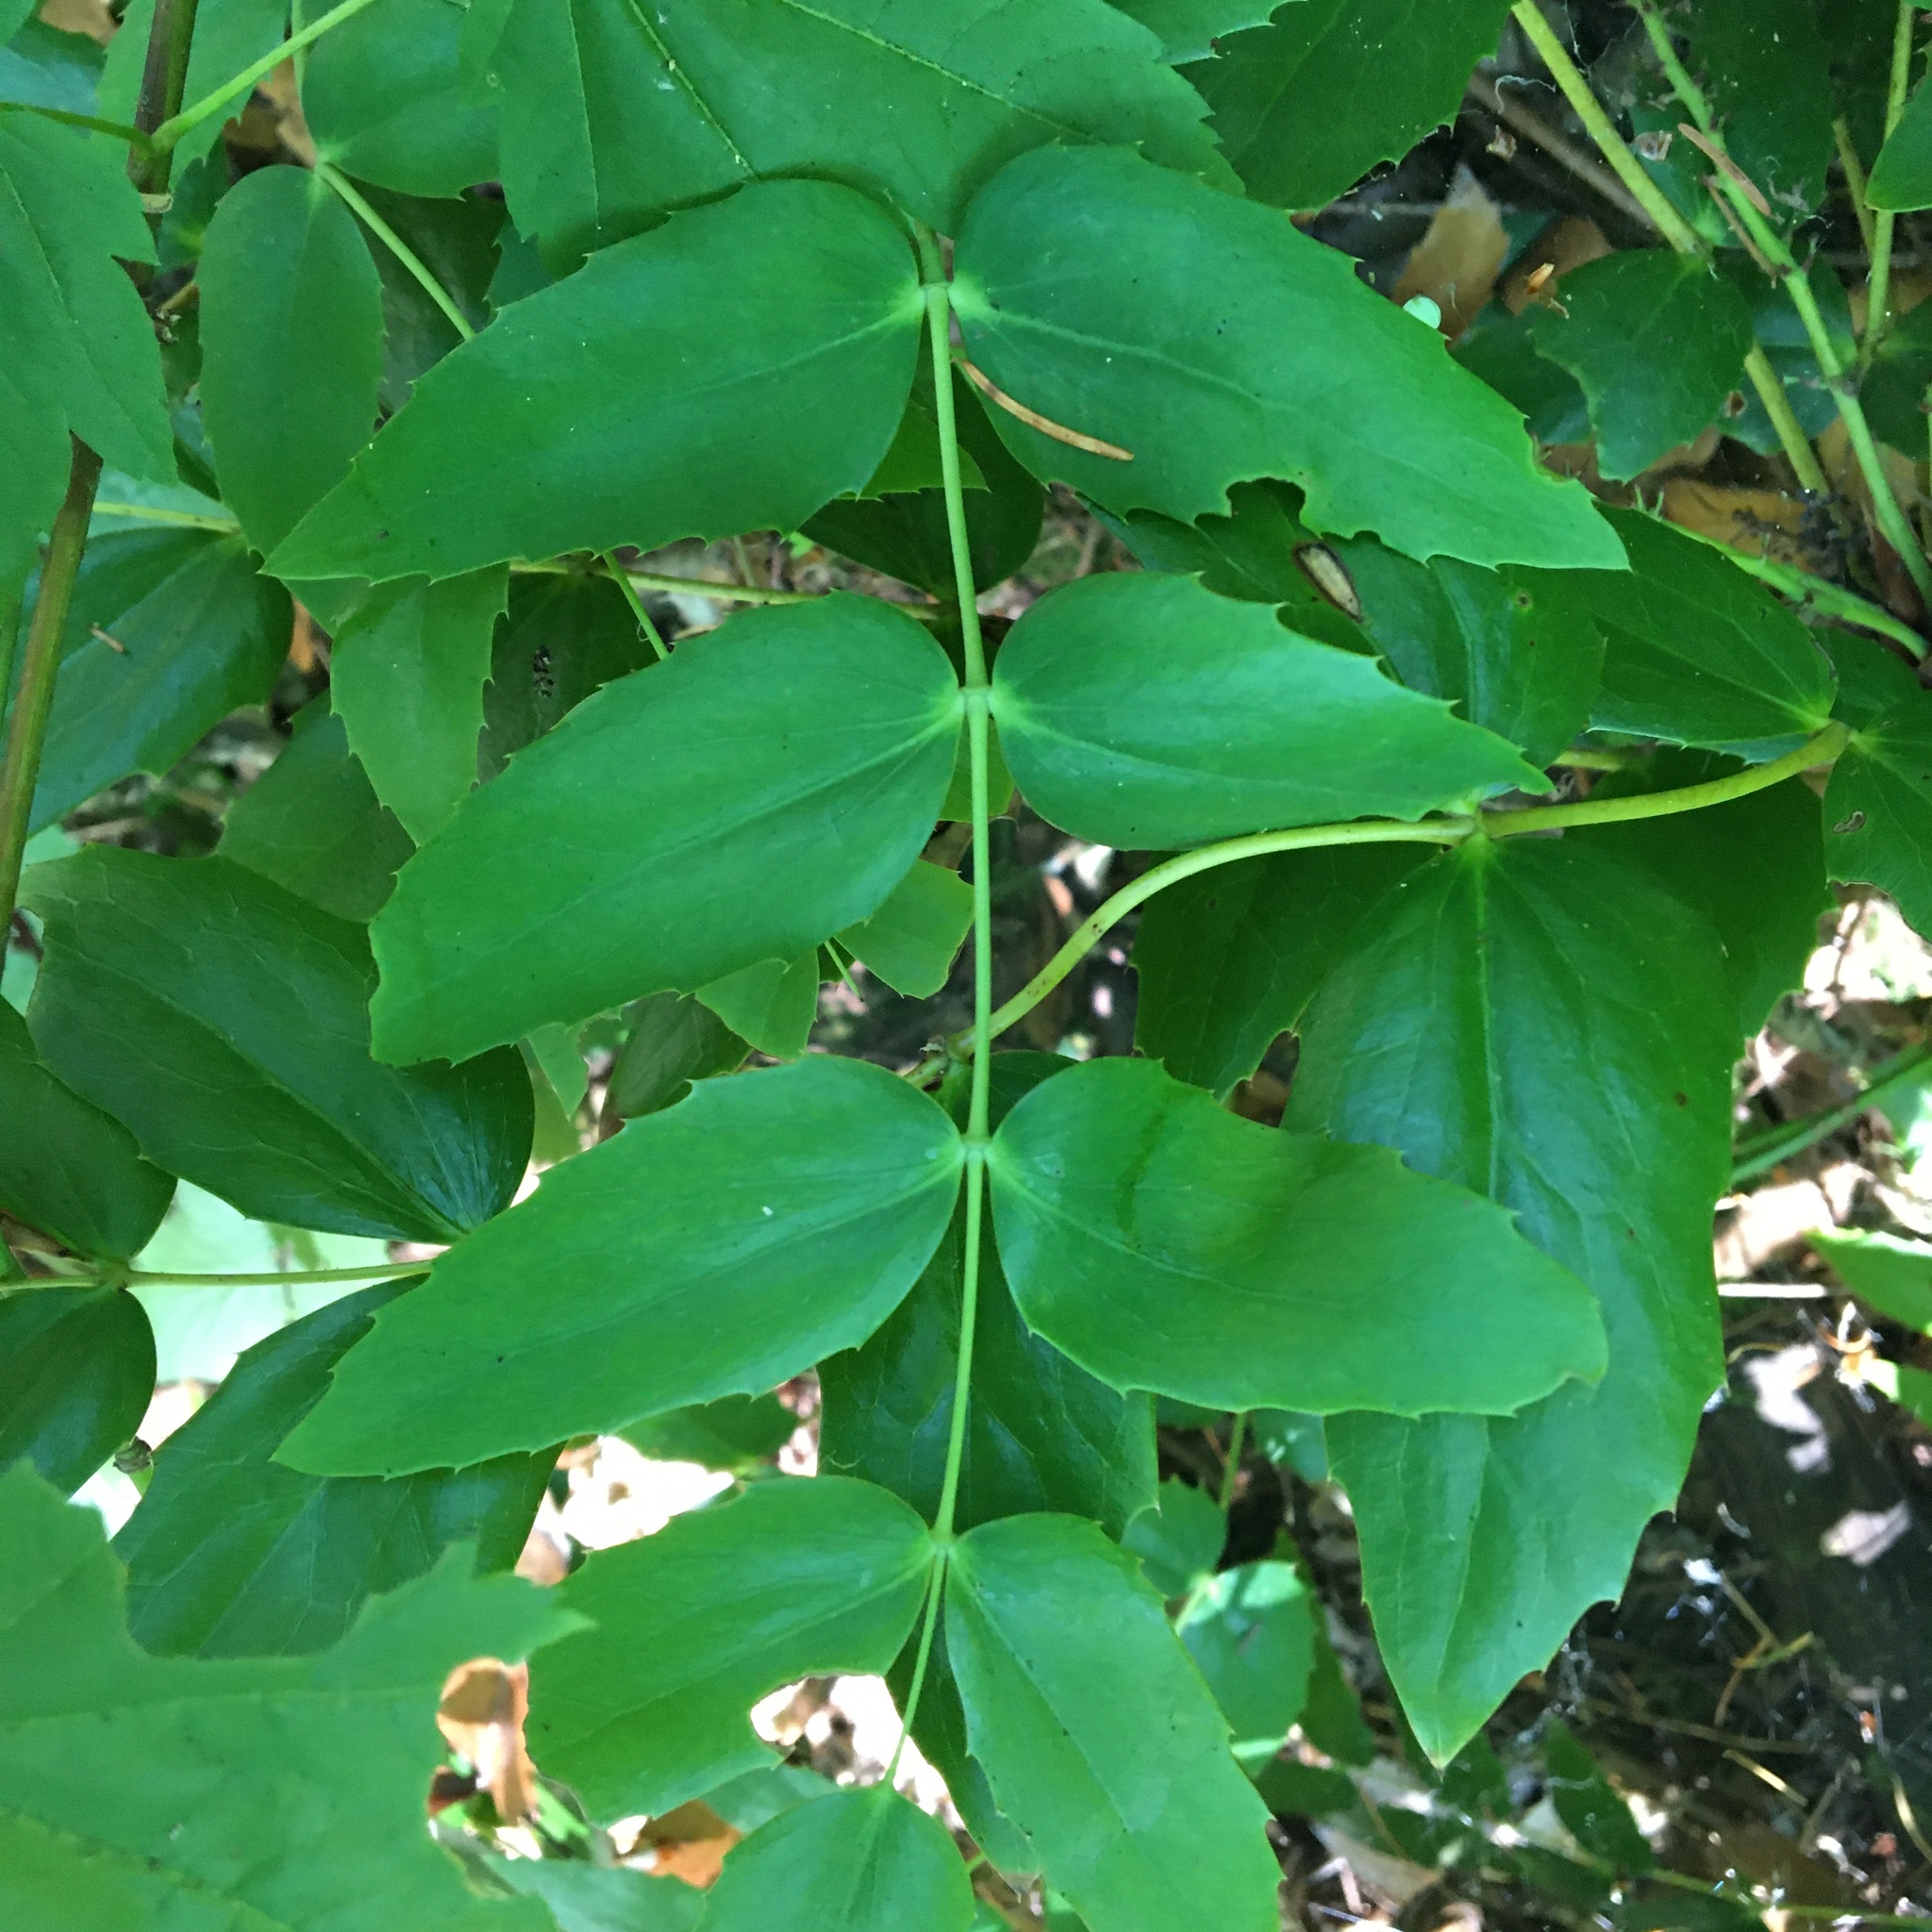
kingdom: Plantae
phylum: Tracheophyta
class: Magnoliopsida
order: Ranunculales
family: Berberidaceae
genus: Mahonia
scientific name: Mahonia nervosa
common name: Cascade oregon-grape
